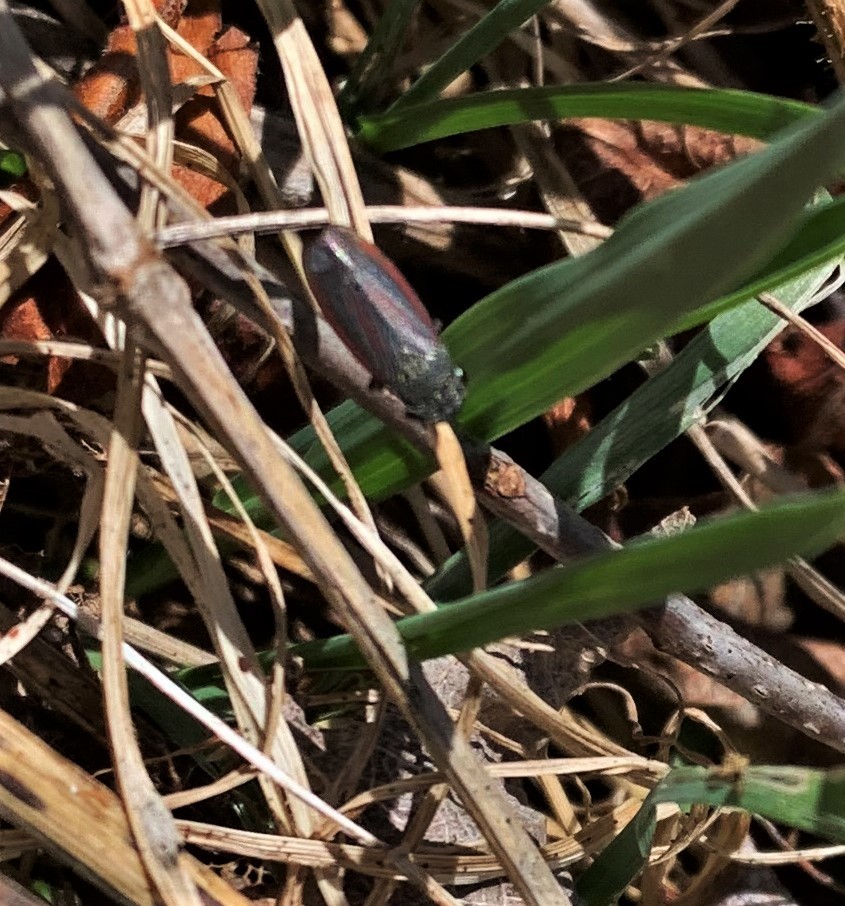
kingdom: Animalia
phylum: Arthropoda
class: Insecta
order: Hemiptera
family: Cicadellidae
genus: Cuerna
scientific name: Cuerna striata
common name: Striped leafhopper
